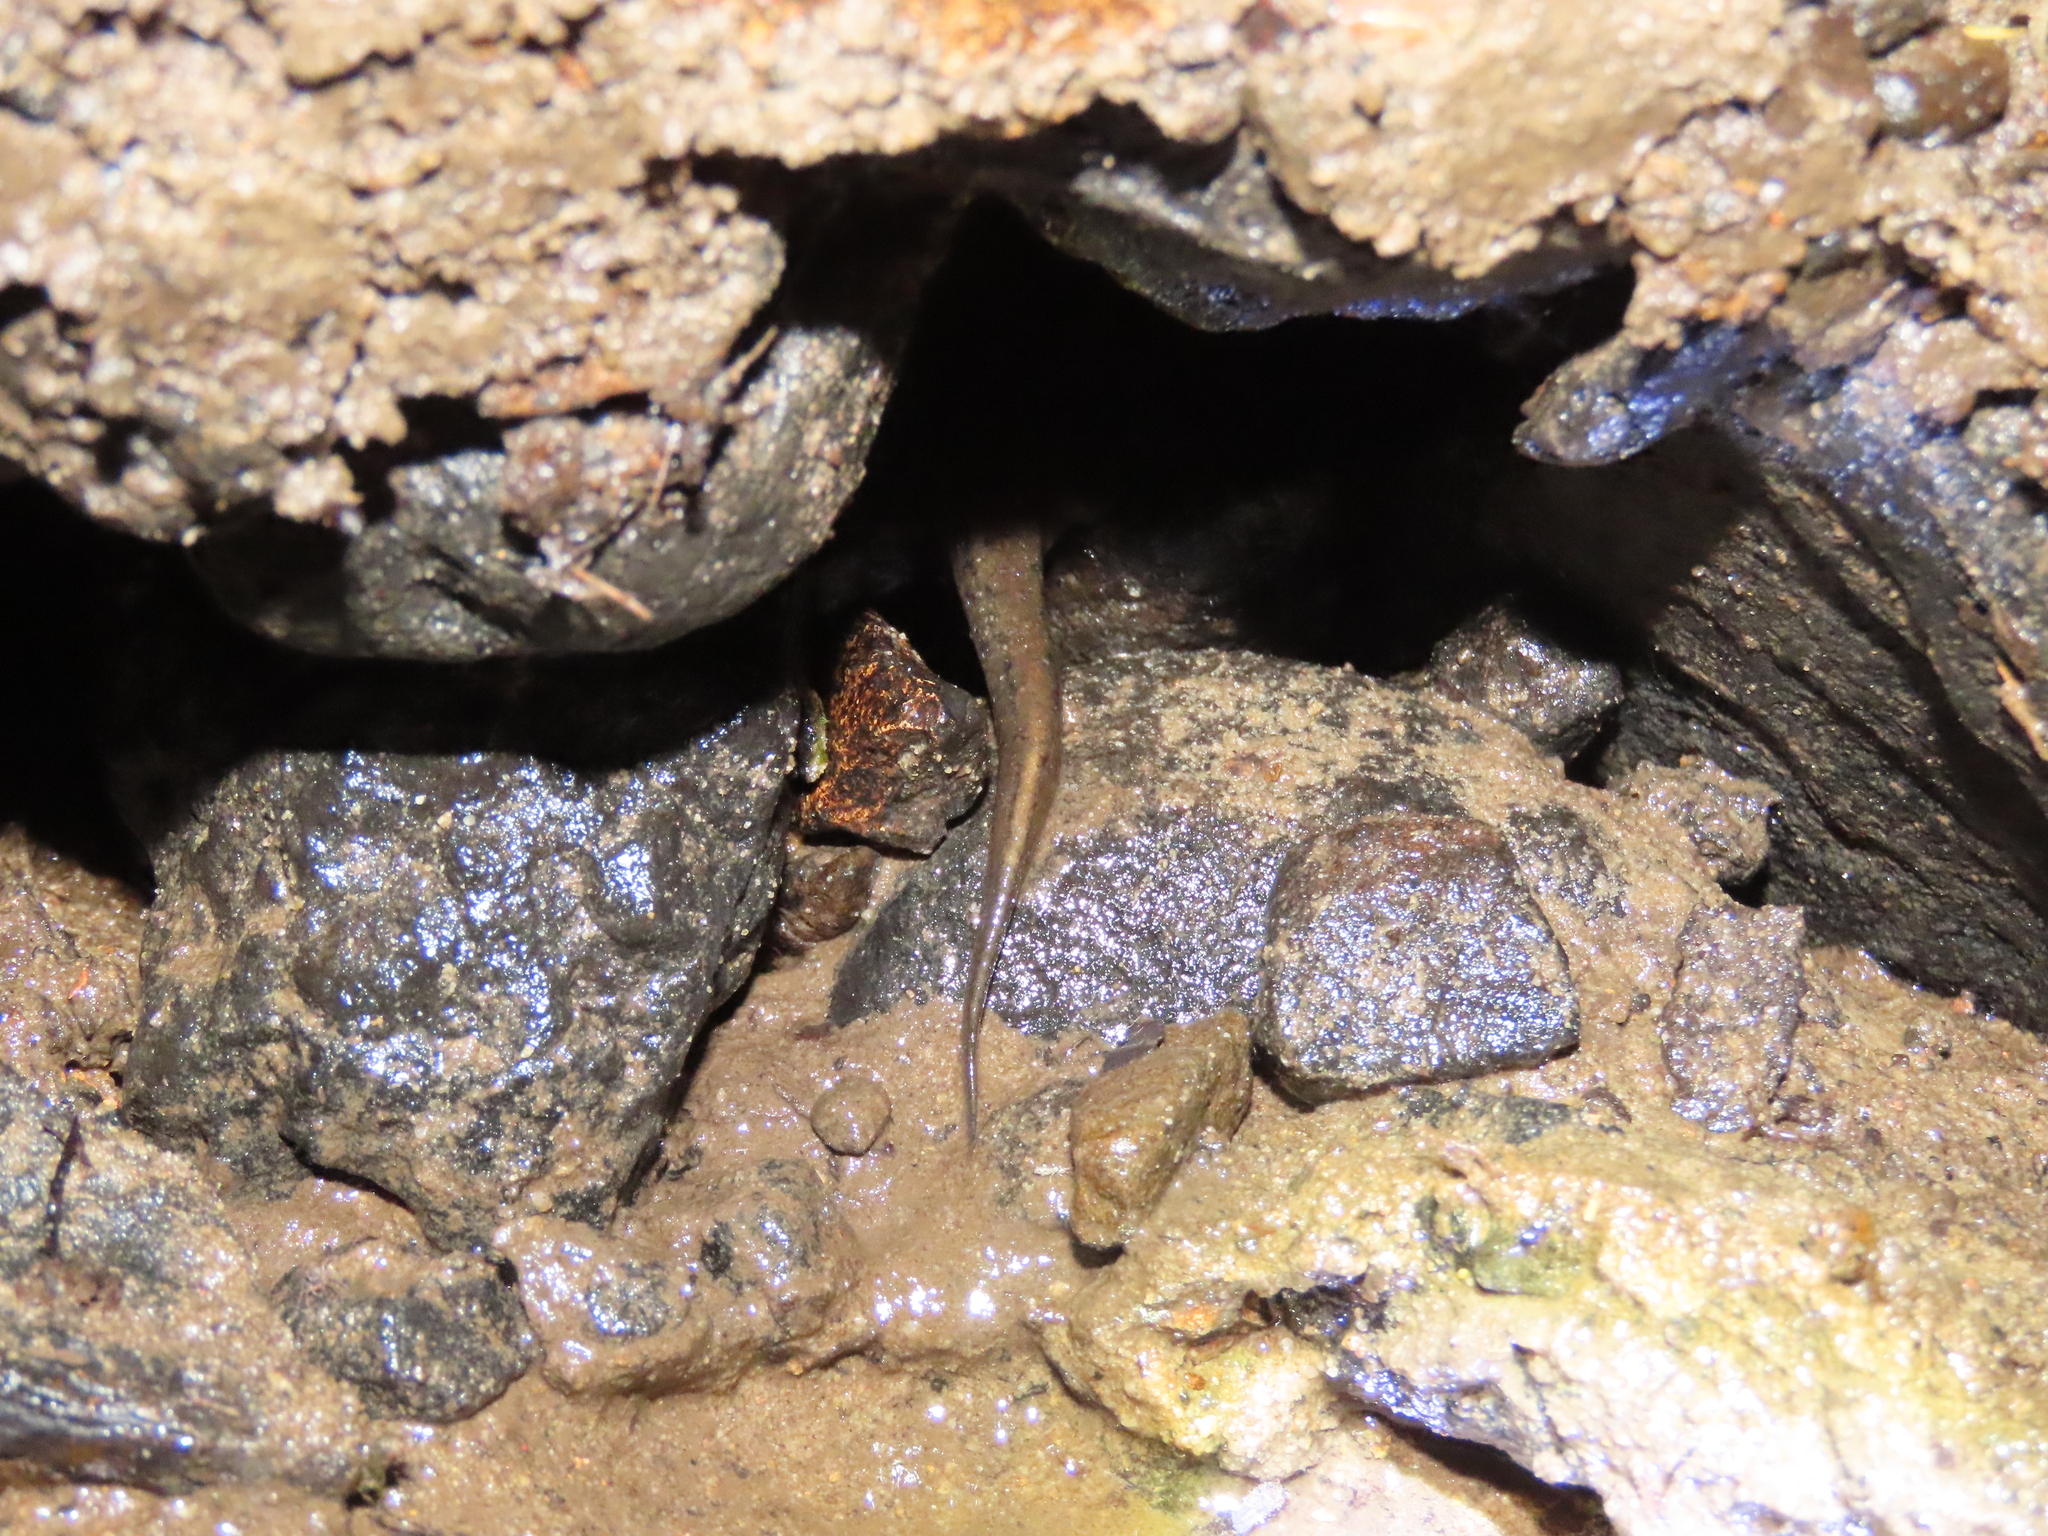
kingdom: Animalia
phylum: Chordata
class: Amphibia
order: Caudata
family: Plethodontidae
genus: Desmognathus
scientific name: Desmognathus fuscus
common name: Northern dusky salamander
